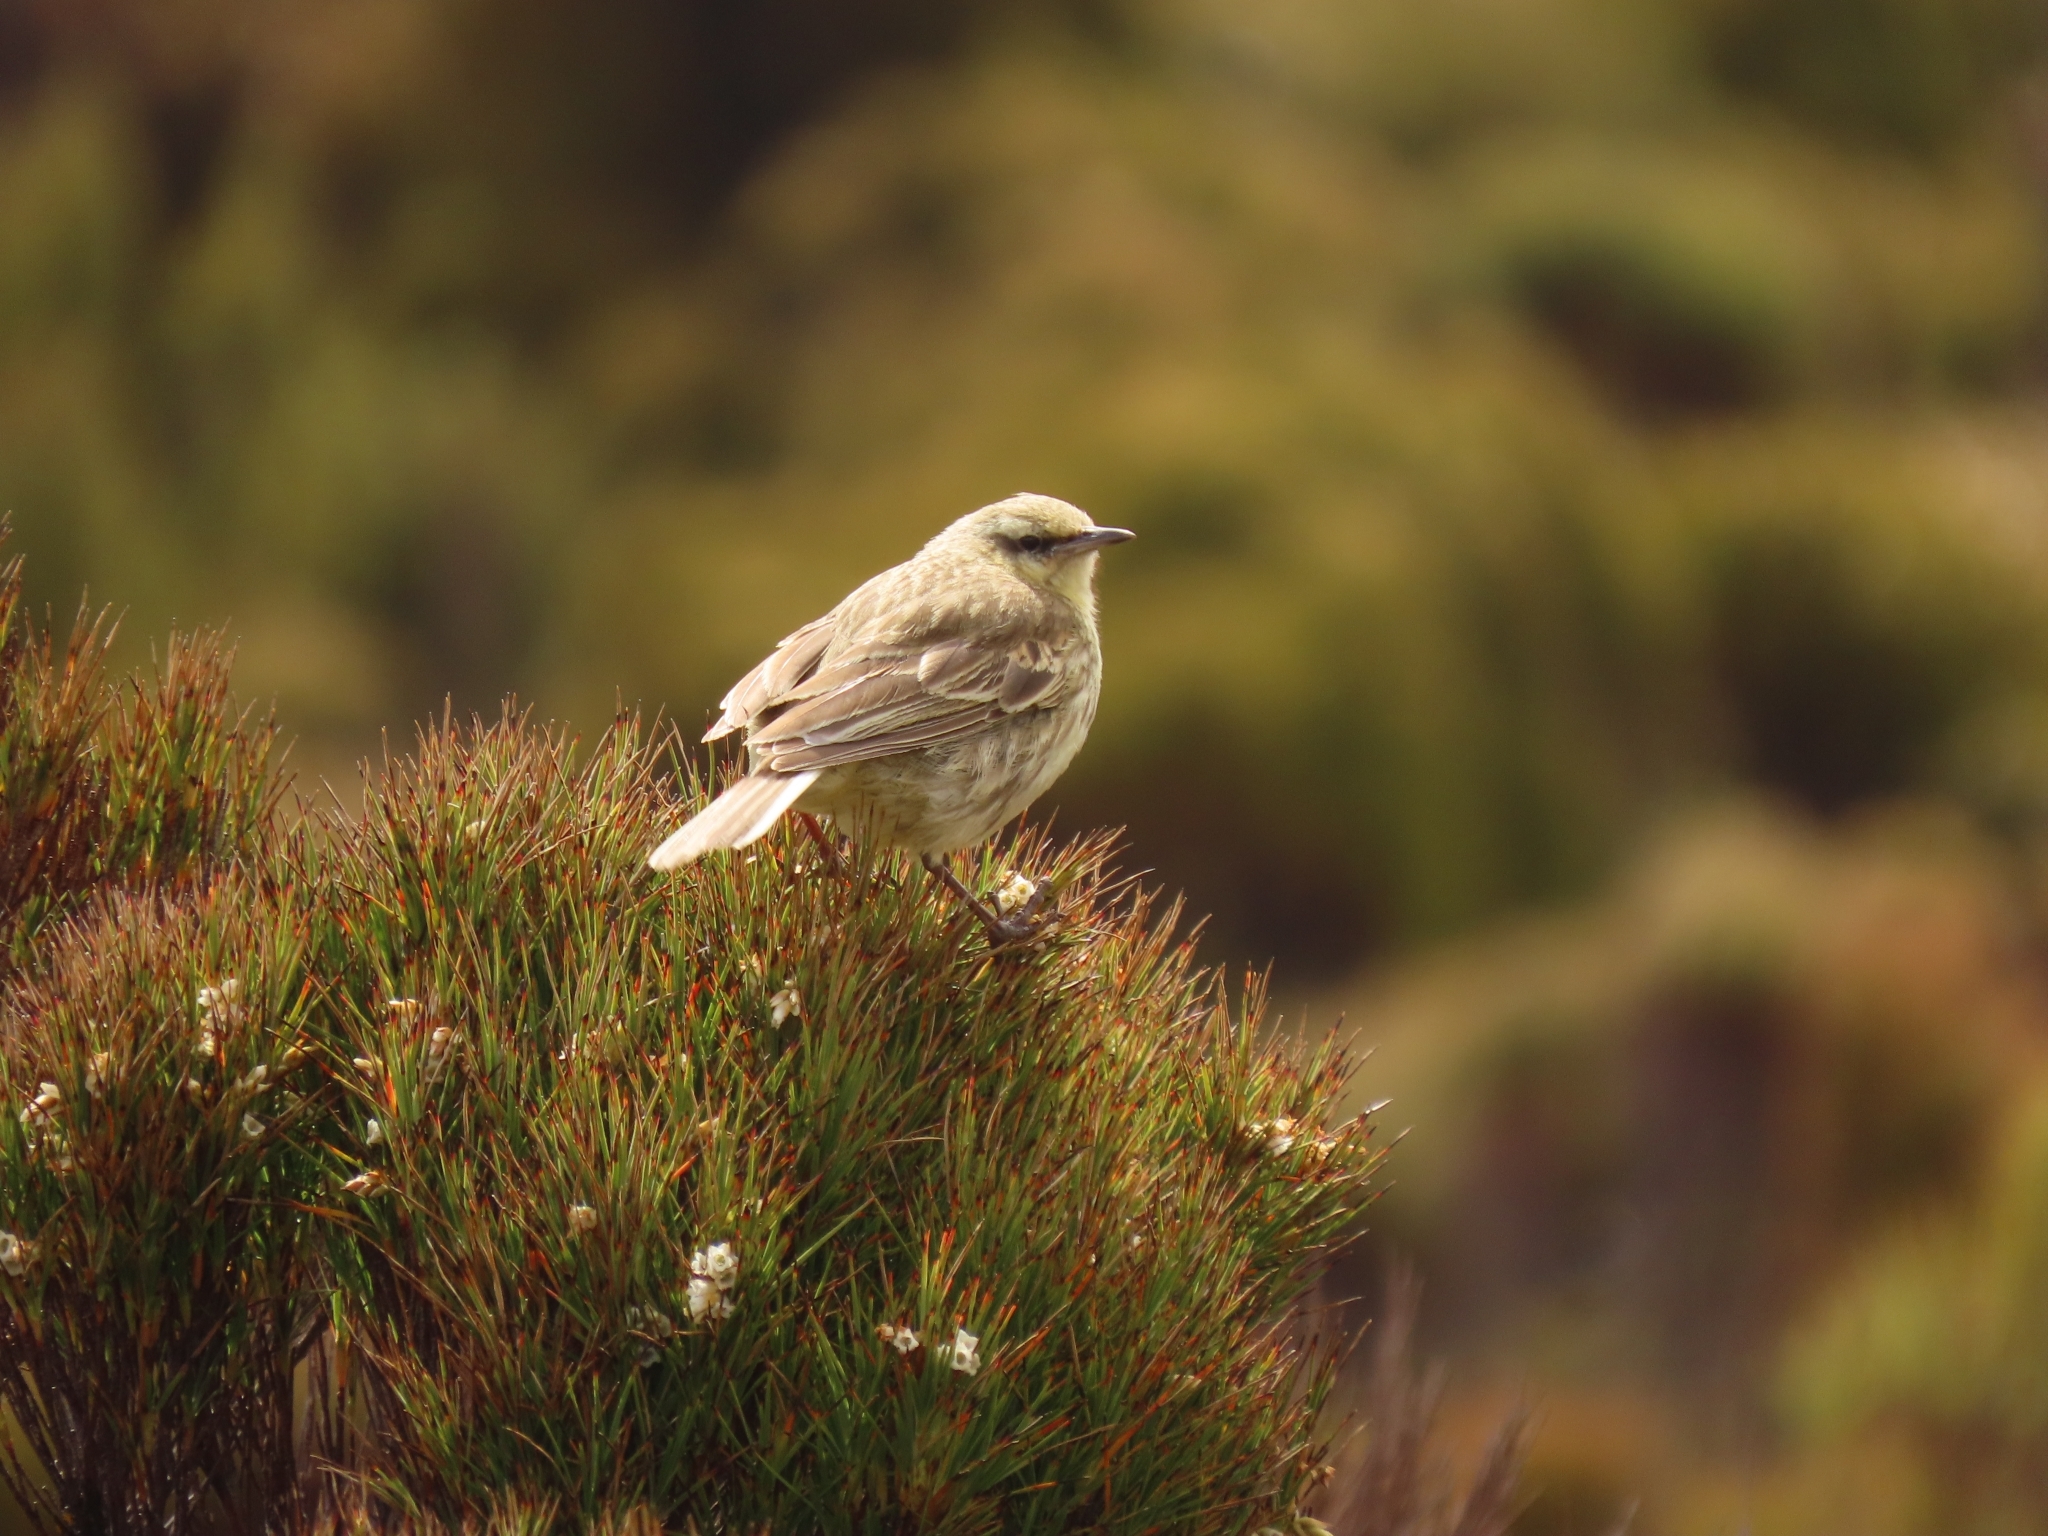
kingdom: Animalia
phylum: Chordata
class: Aves
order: Passeriformes
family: Motacillidae
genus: Anthus
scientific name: Anthus novaeseelandiae
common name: New zealand pipit
